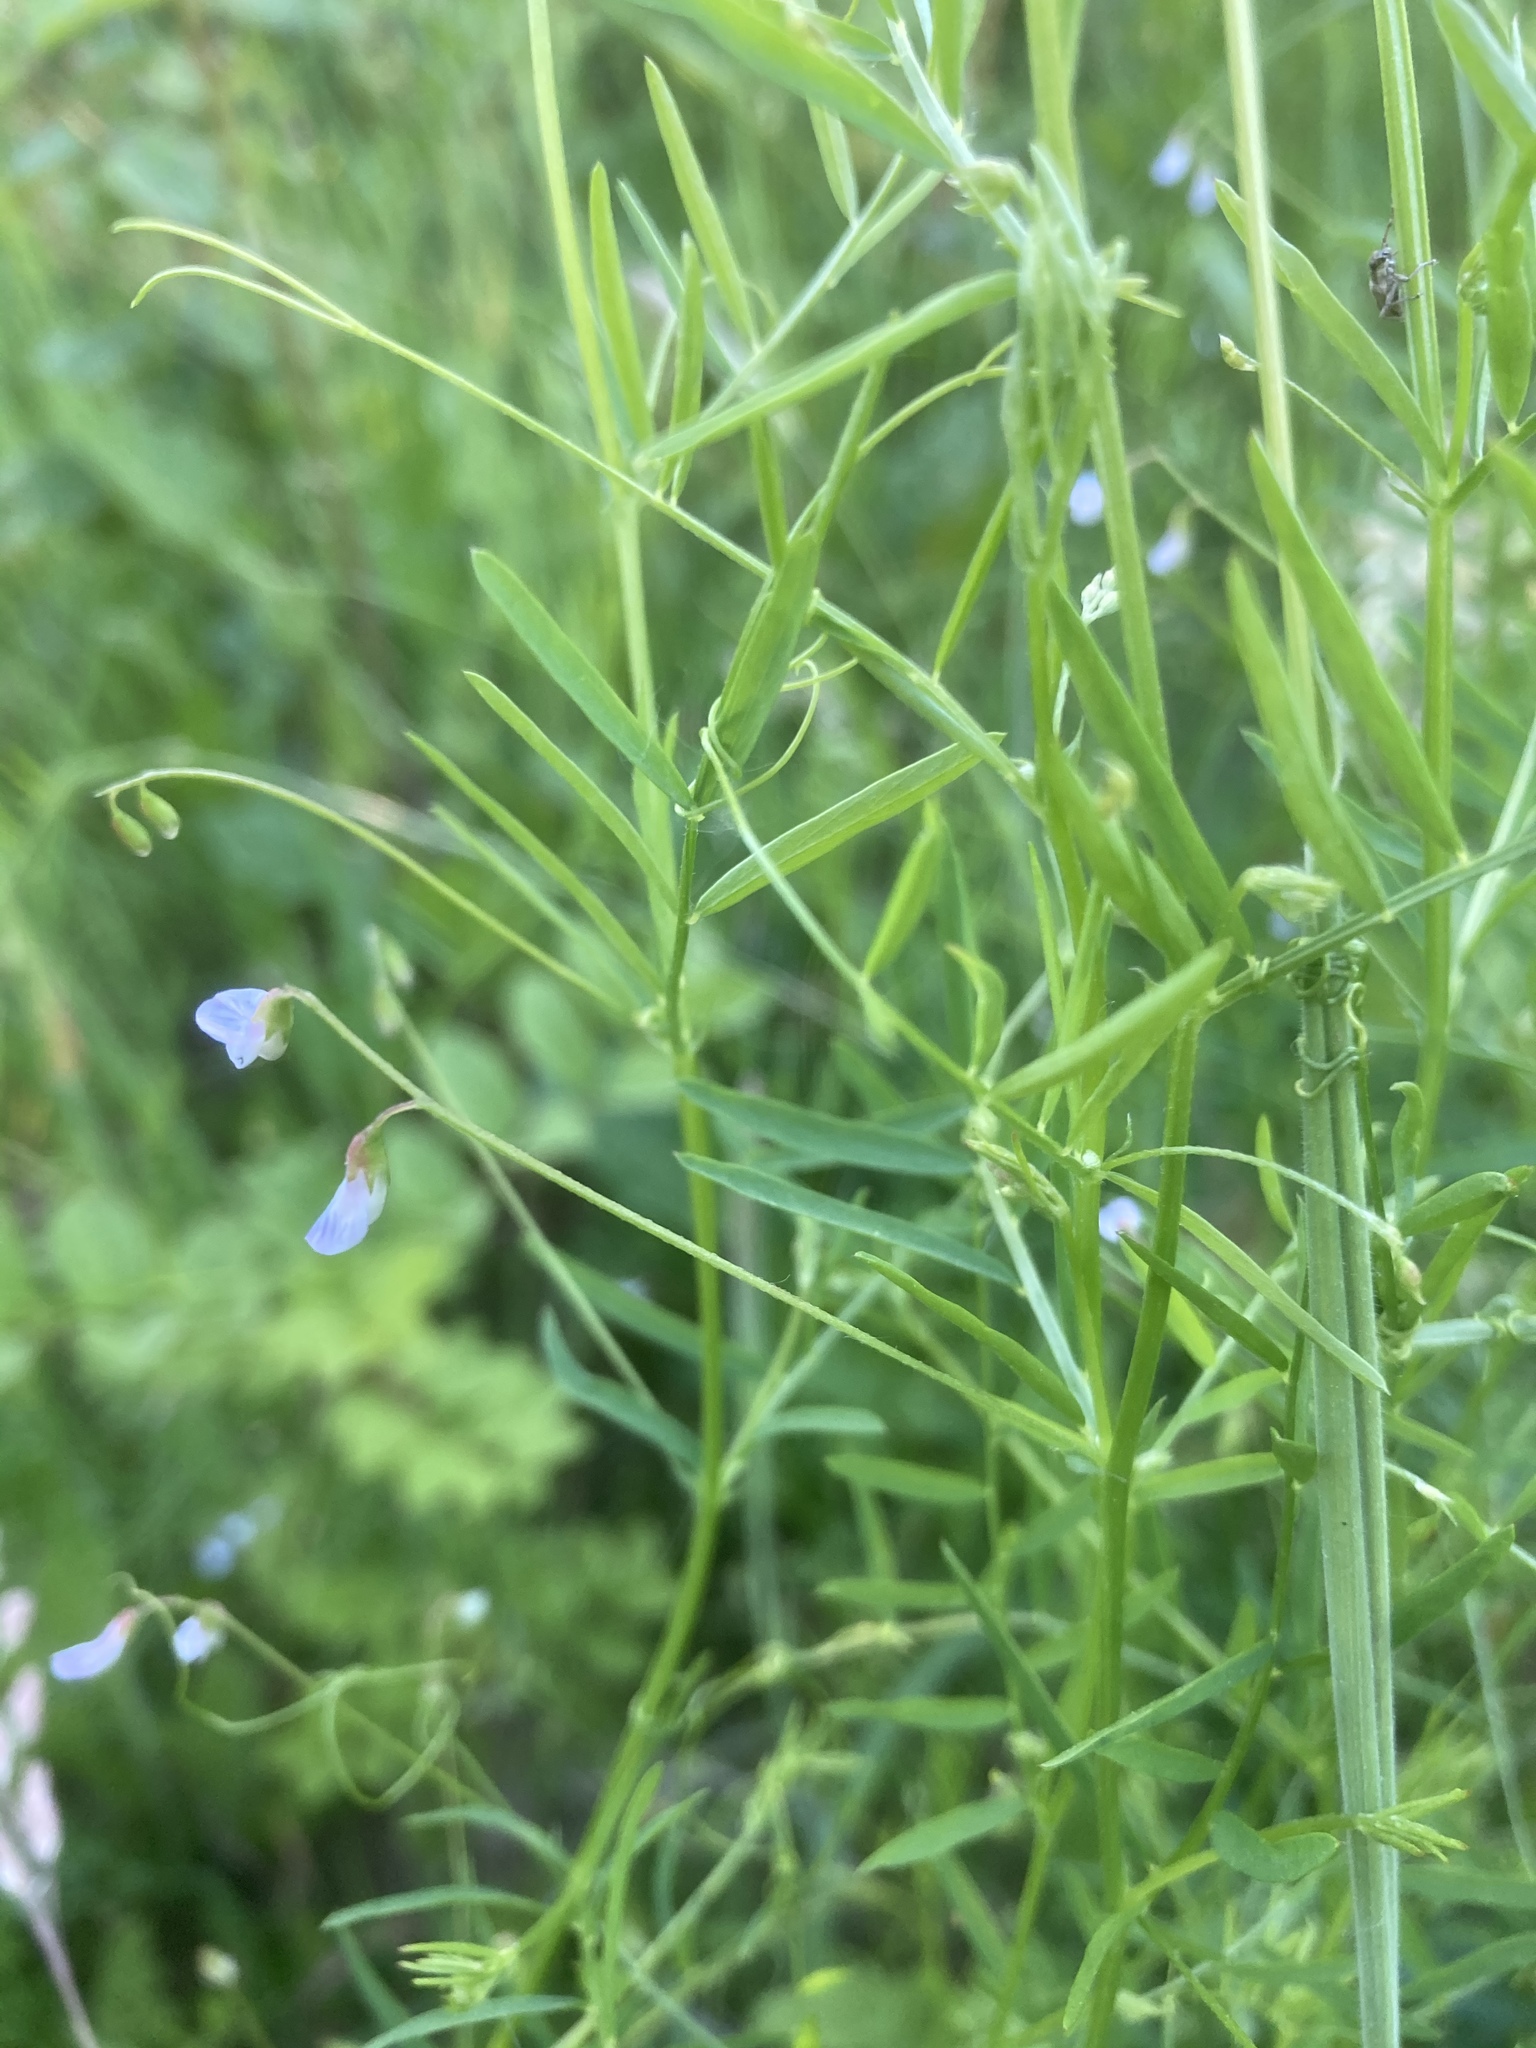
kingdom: Plantae
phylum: Tracheophyta
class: Magnoliopsida
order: Fabales
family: Fabaceae
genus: Vicia
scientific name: Vicia tetrasperma
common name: Smooth tare
